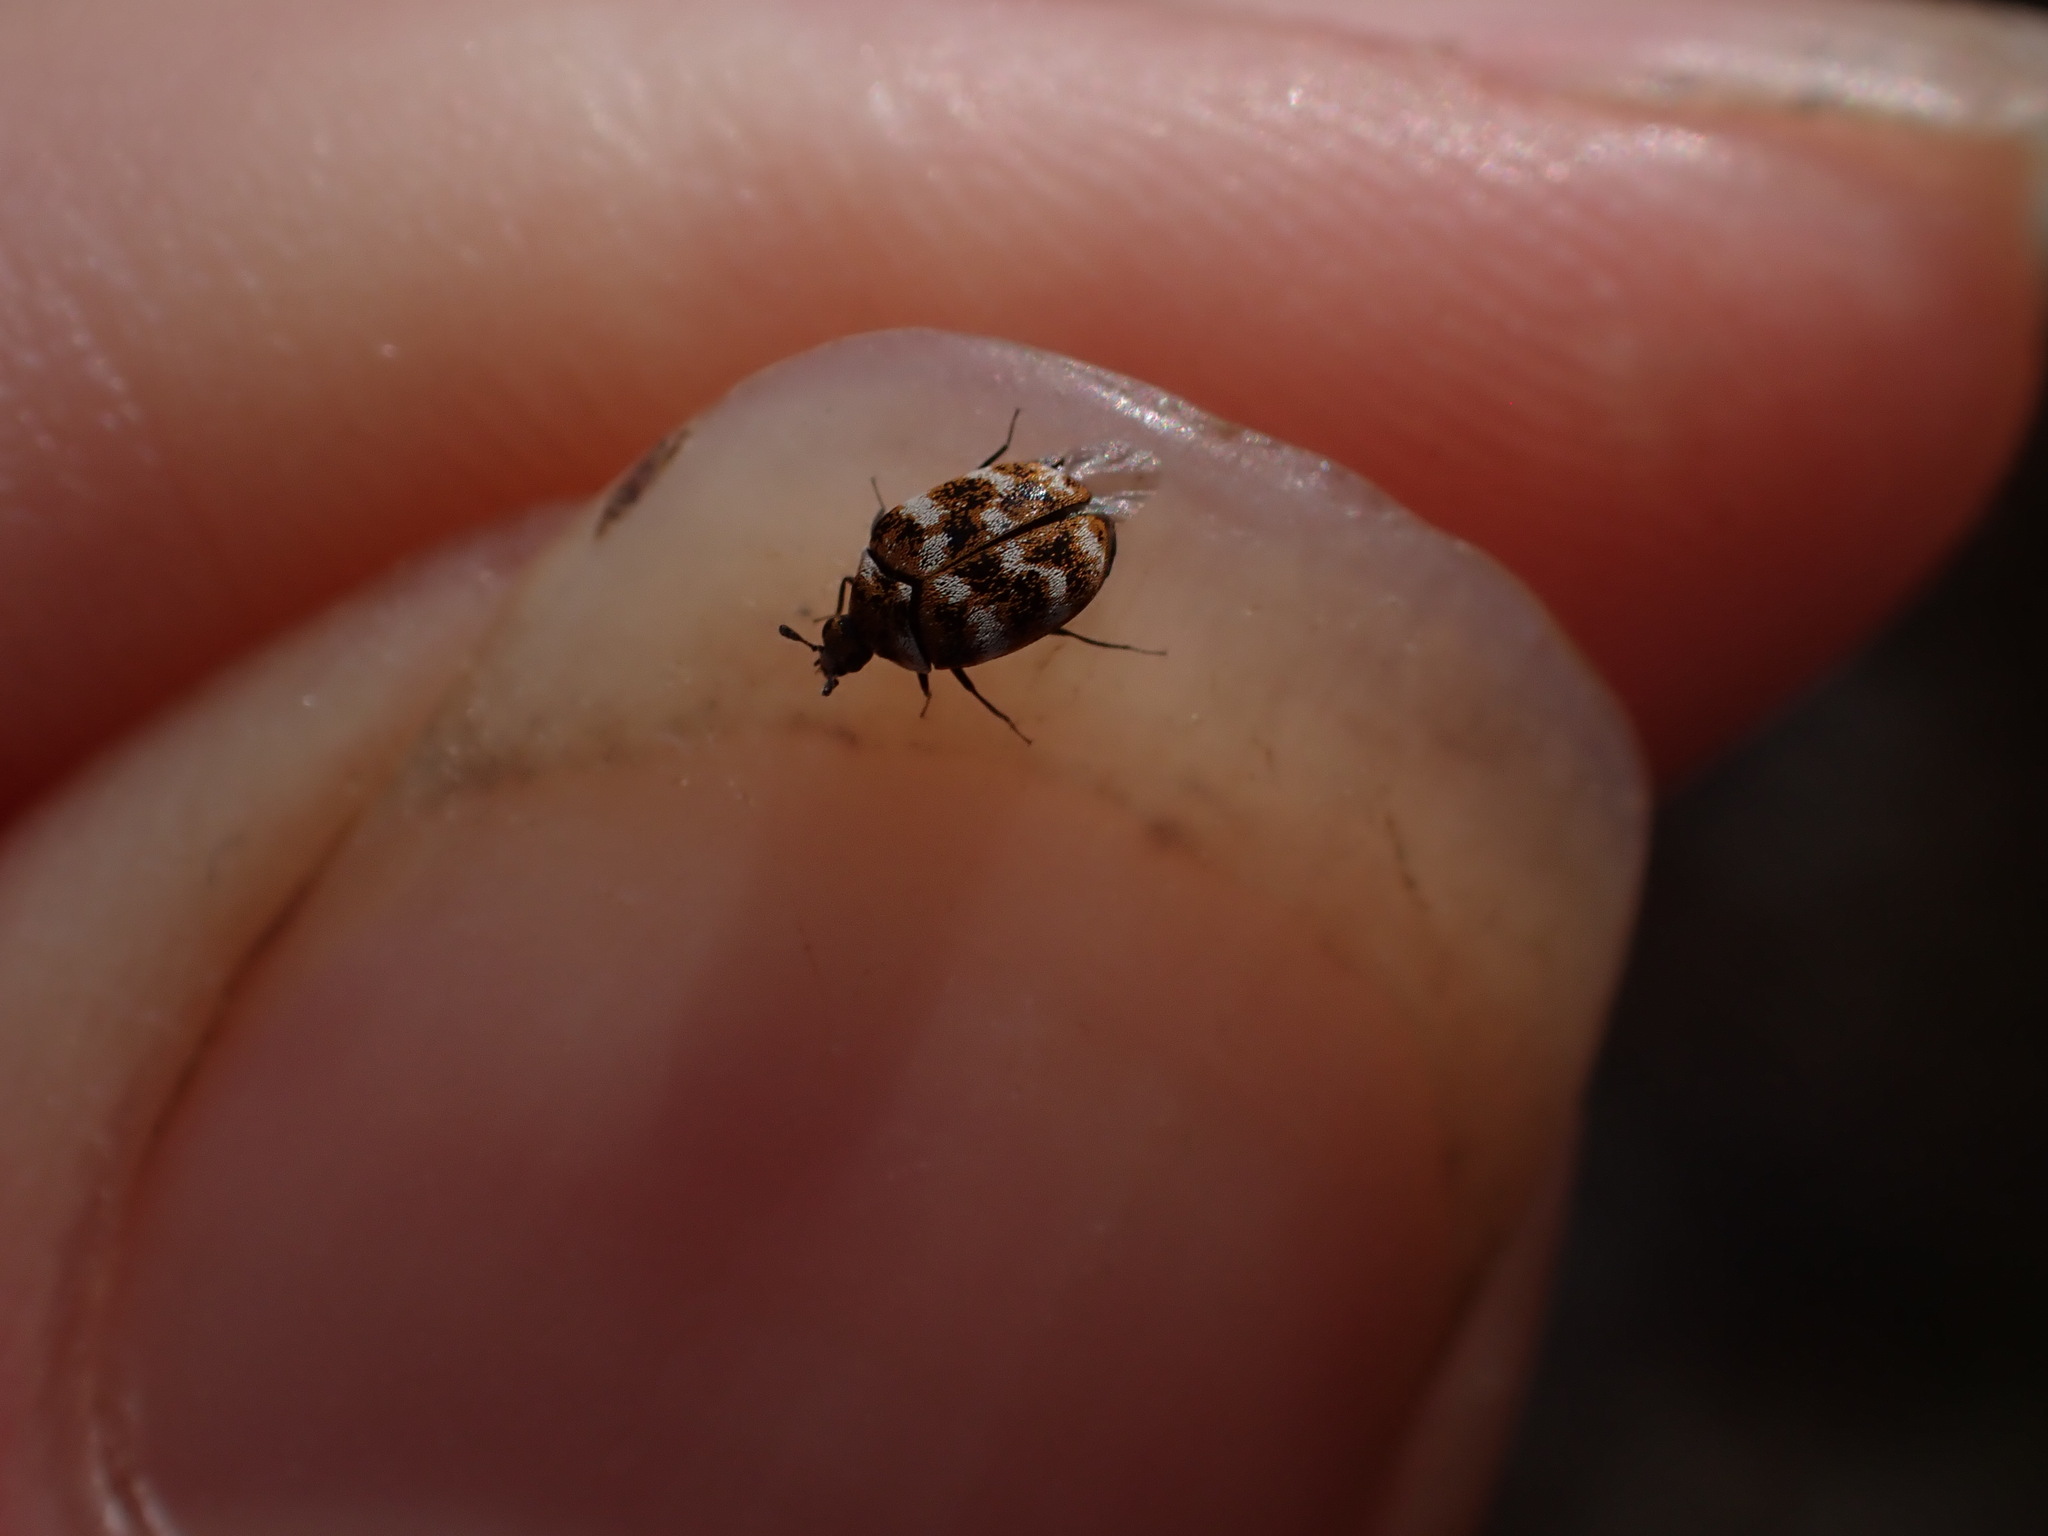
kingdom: Animalia
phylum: Arthropoda
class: Insecta
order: Coleoptera
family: Dermestidae
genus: Anthrenus
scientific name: Anthrenus verbasci
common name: Varied carpet beetle
